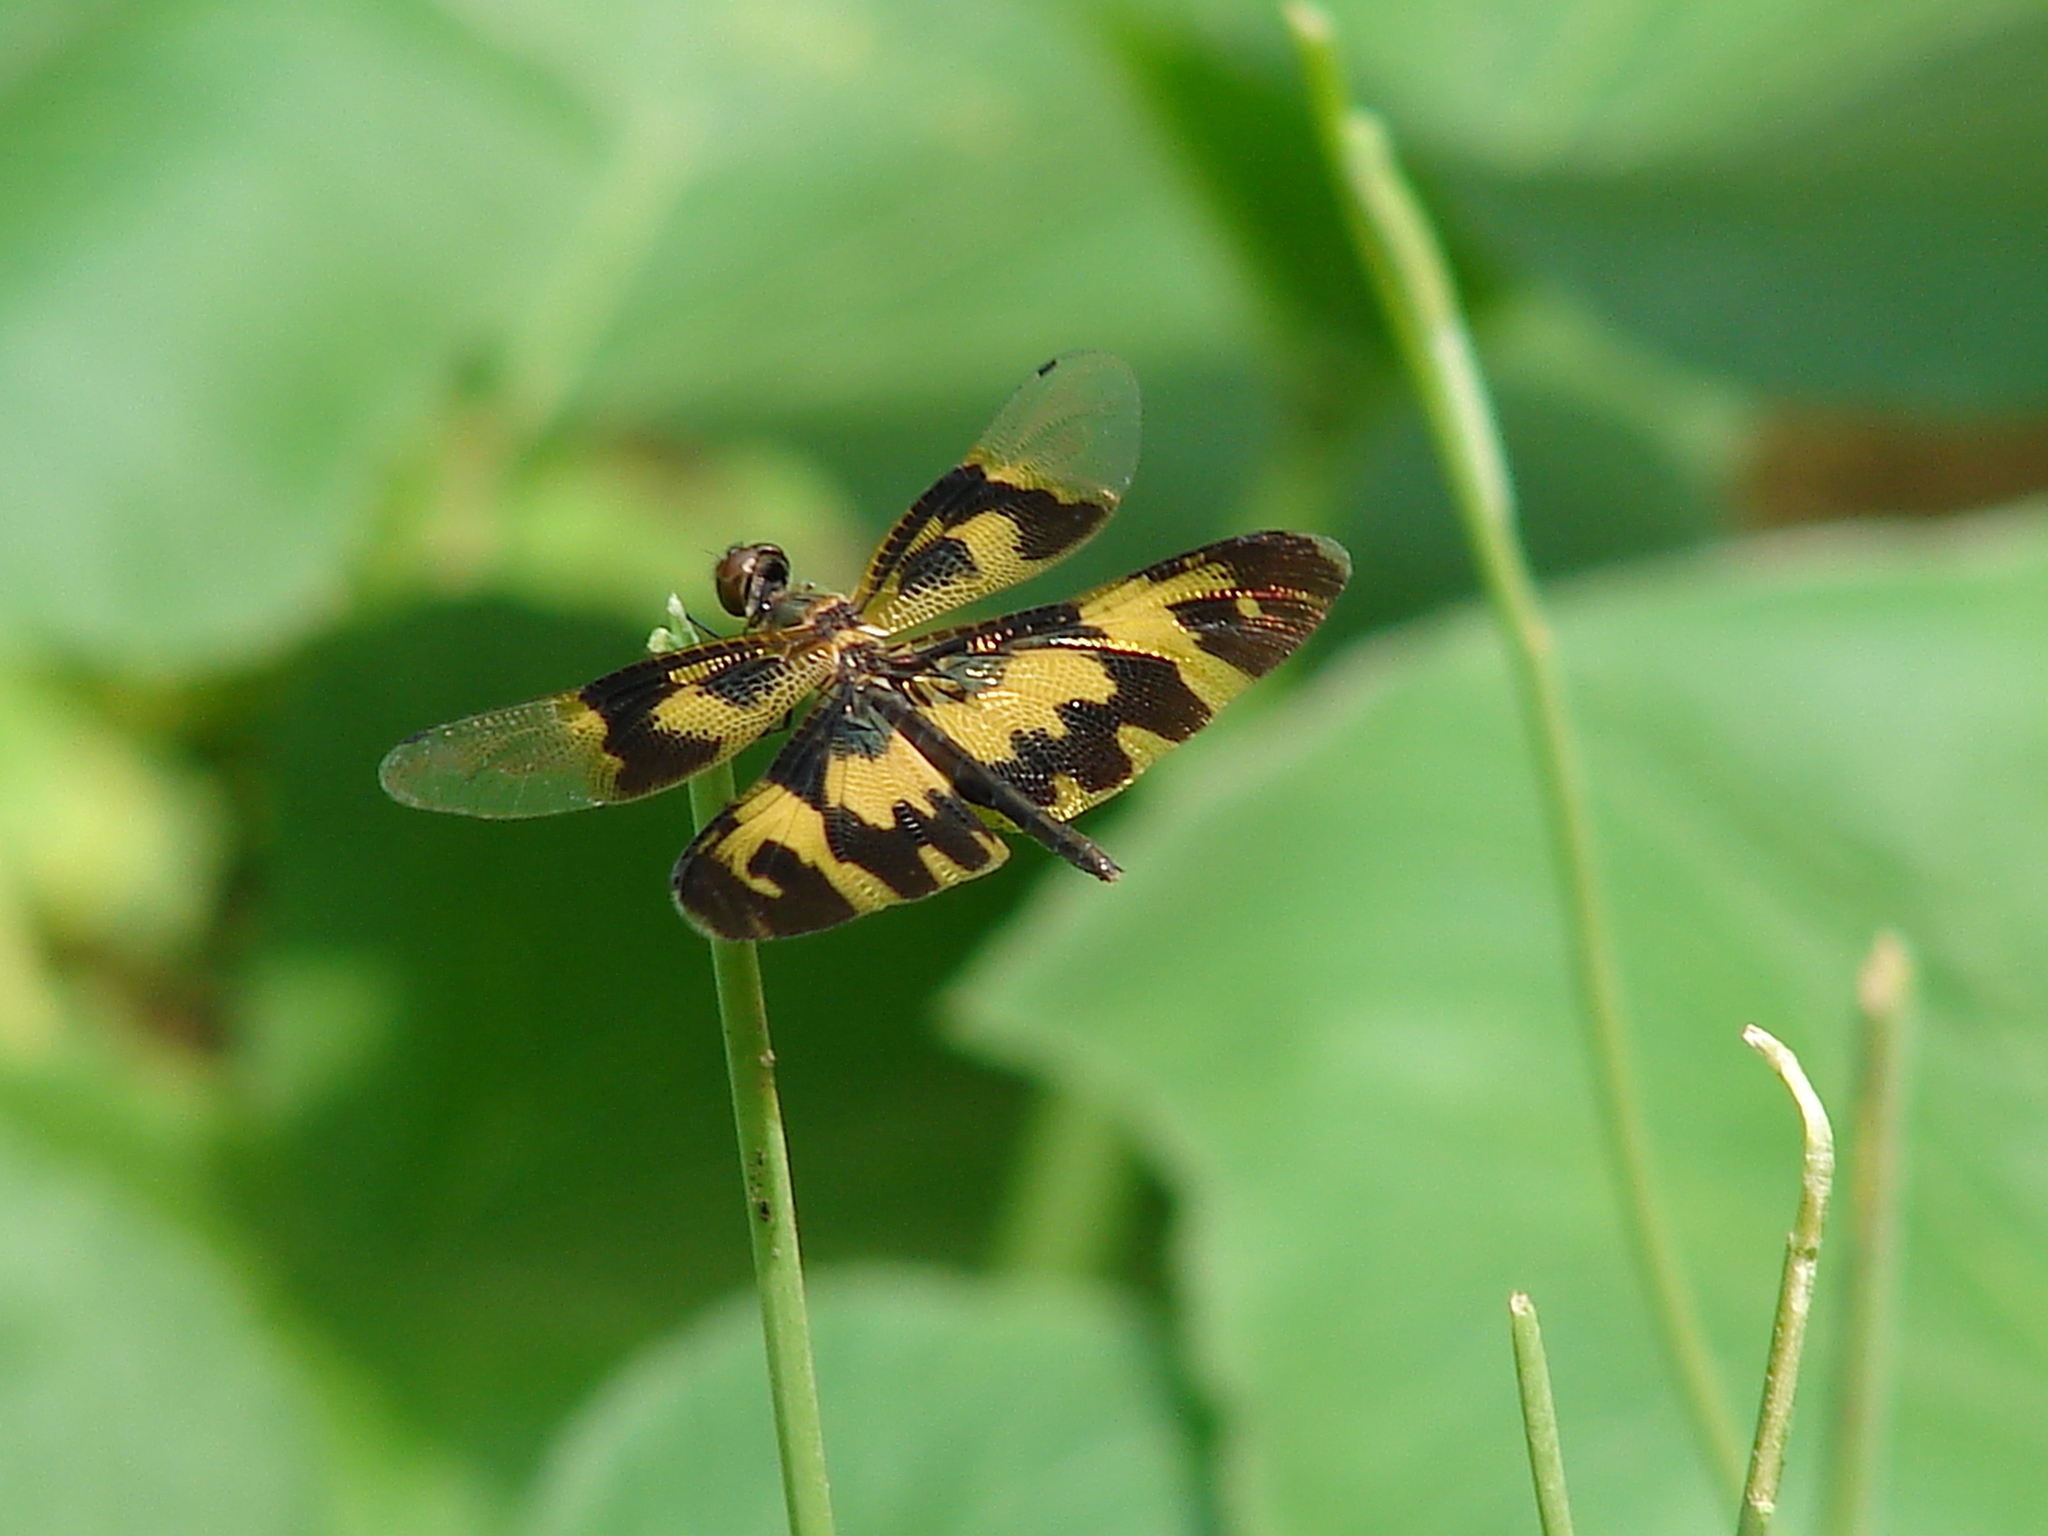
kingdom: Animalia
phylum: Arthropoda
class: Insecta
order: Odonata
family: Libellulidae
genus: Rhyothemis
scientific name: Rhyothemis variegata
